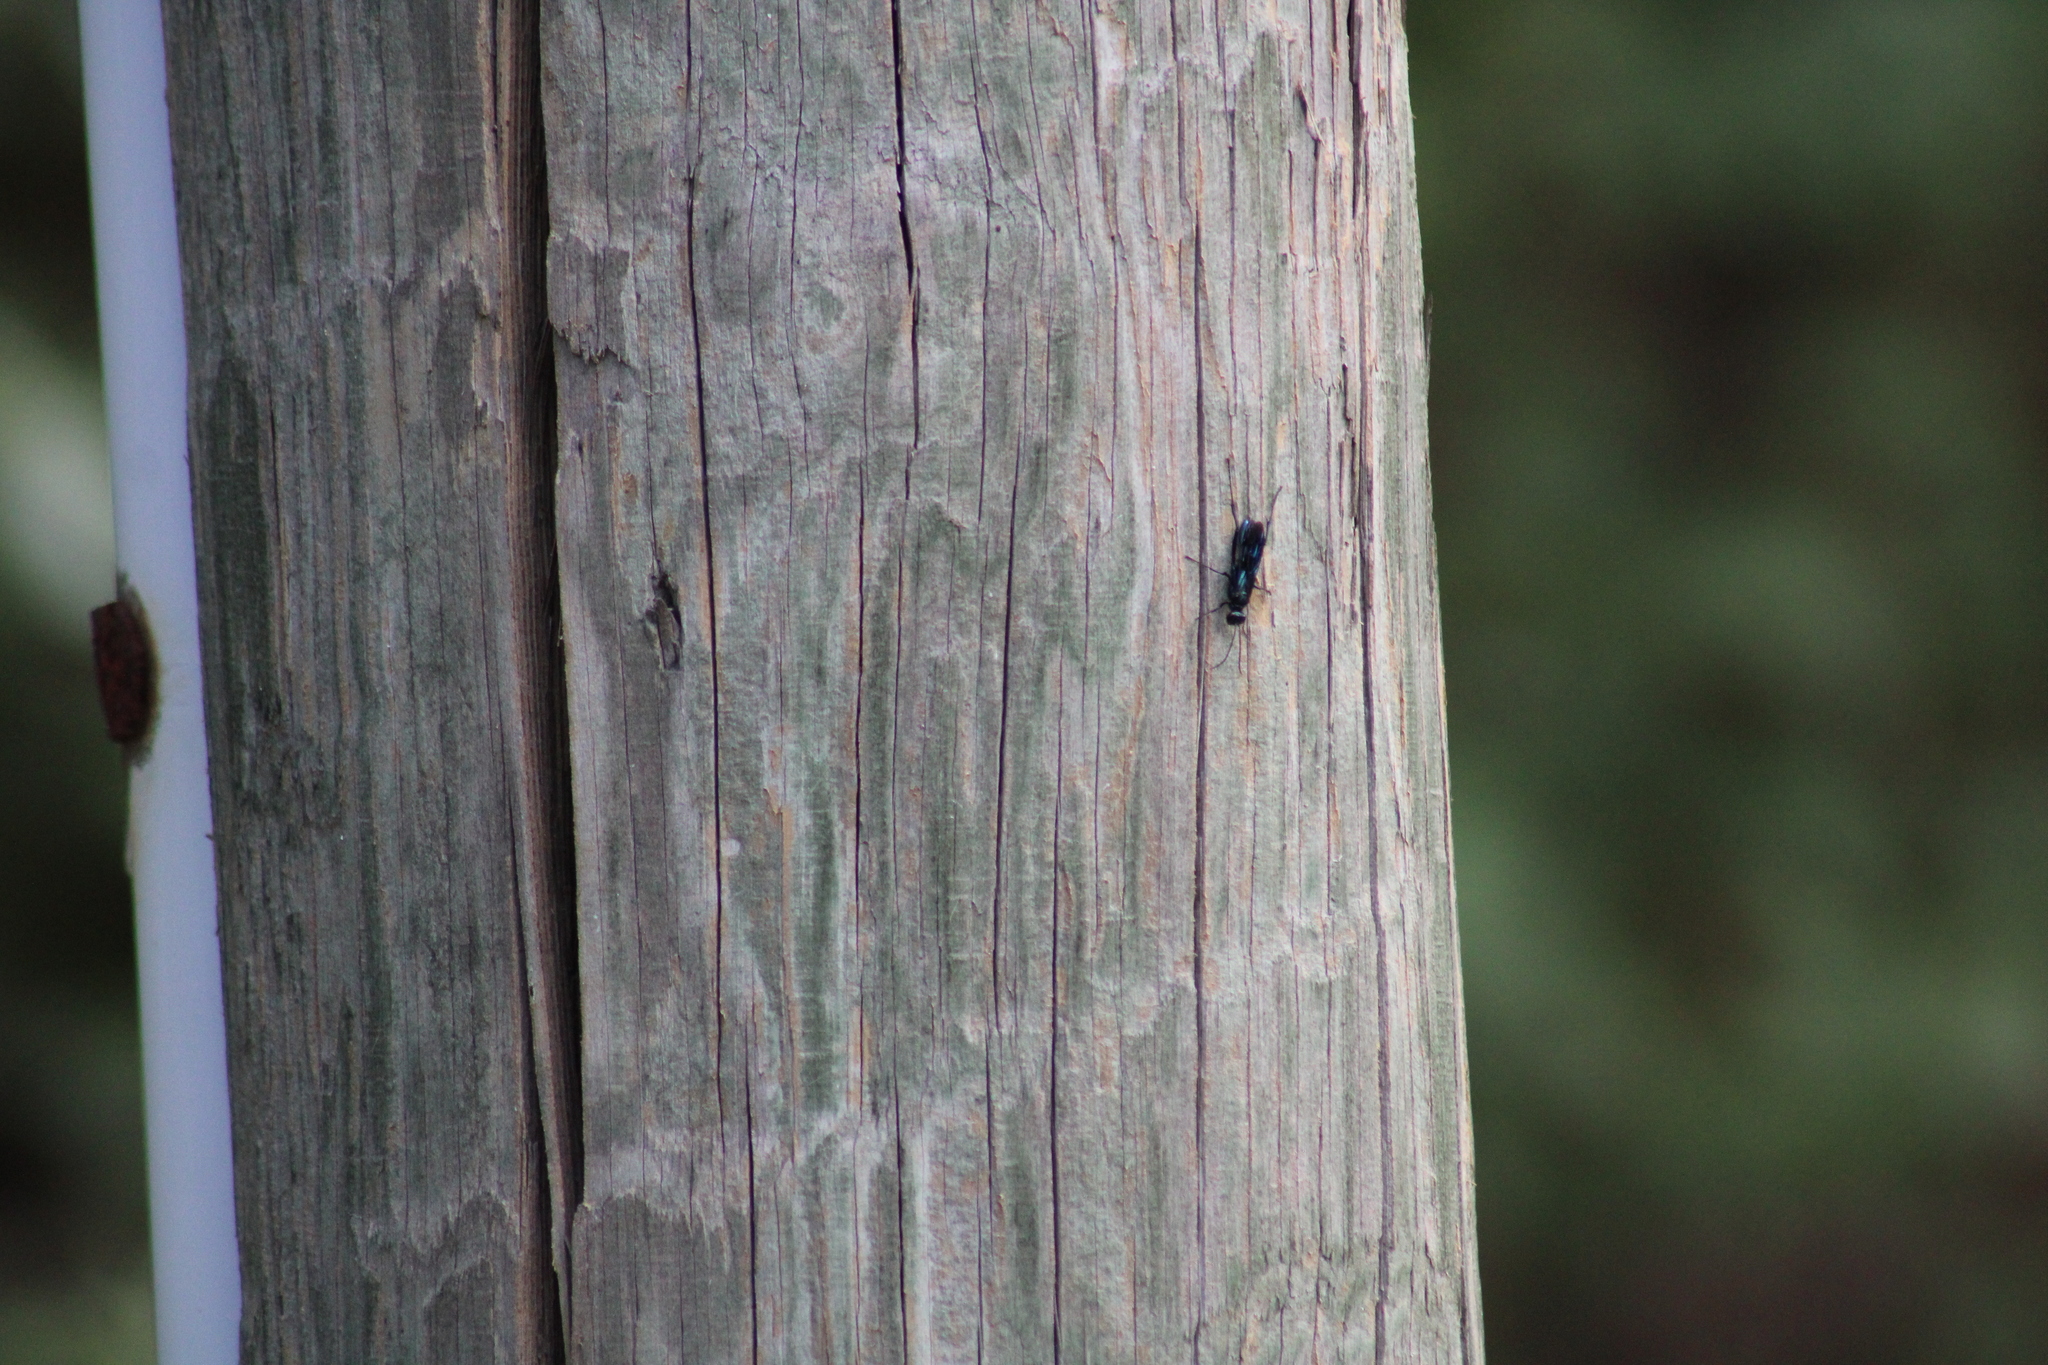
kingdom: Animalia
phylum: Arthropoda
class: Insecta
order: Hymenoptera
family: Sphecidae
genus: Chalybion
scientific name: Chalybion californicum
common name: Mud dauber
